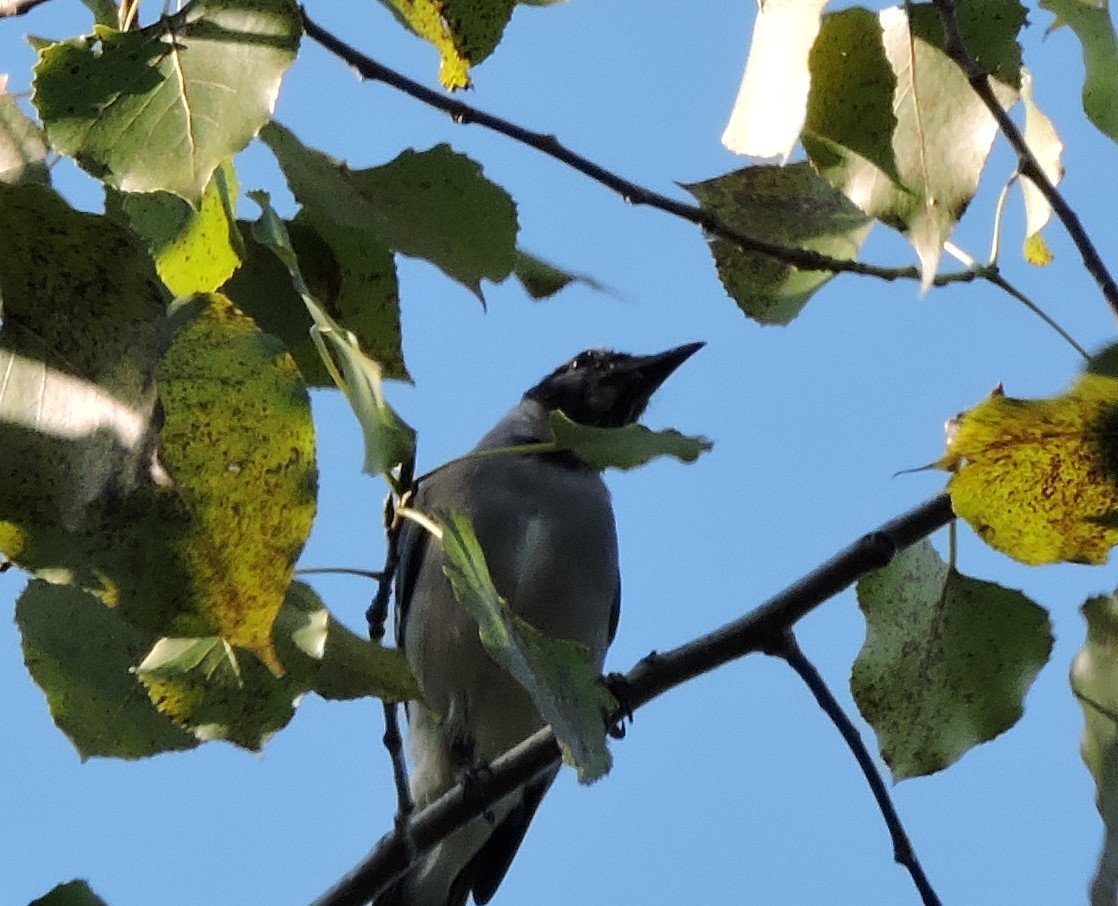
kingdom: Animalia
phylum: Chordata
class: Aves
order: Passeriformes
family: Corvidae
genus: Cyanocitta
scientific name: Cyanocitta cristata
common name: Blue jay
